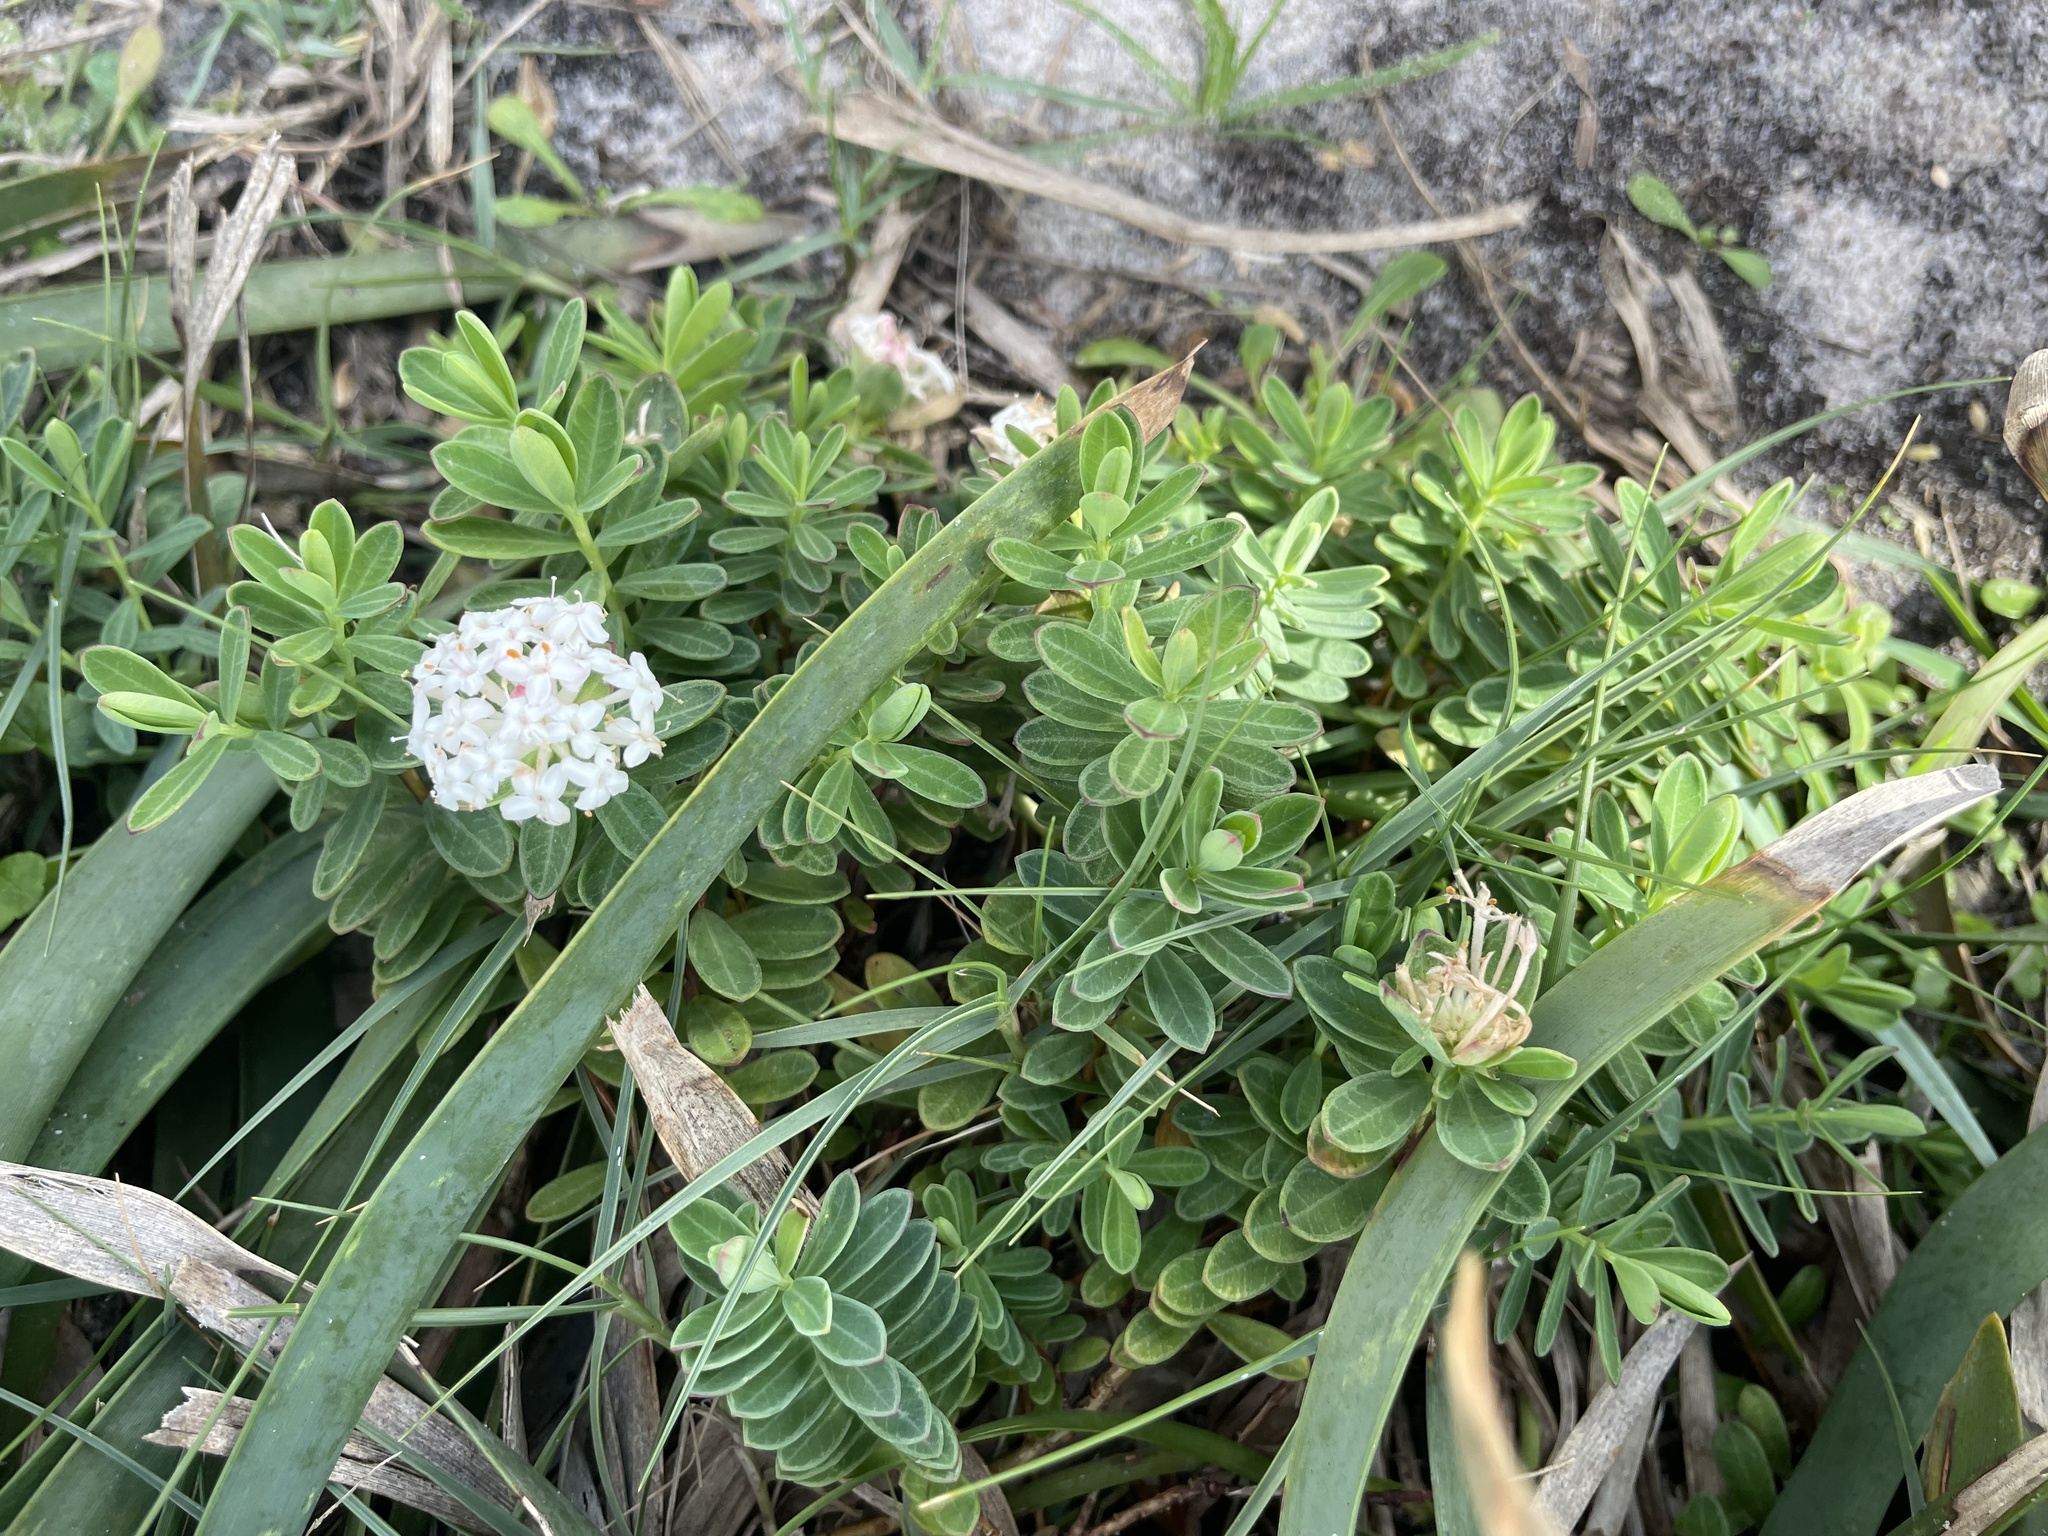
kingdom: Plantae
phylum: Tracheophyta
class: Magnoliopsida
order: Malvales
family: Thymelaeaceae
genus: Pimelea
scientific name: Pimelea linifolia
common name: Queen-of-the-bush
